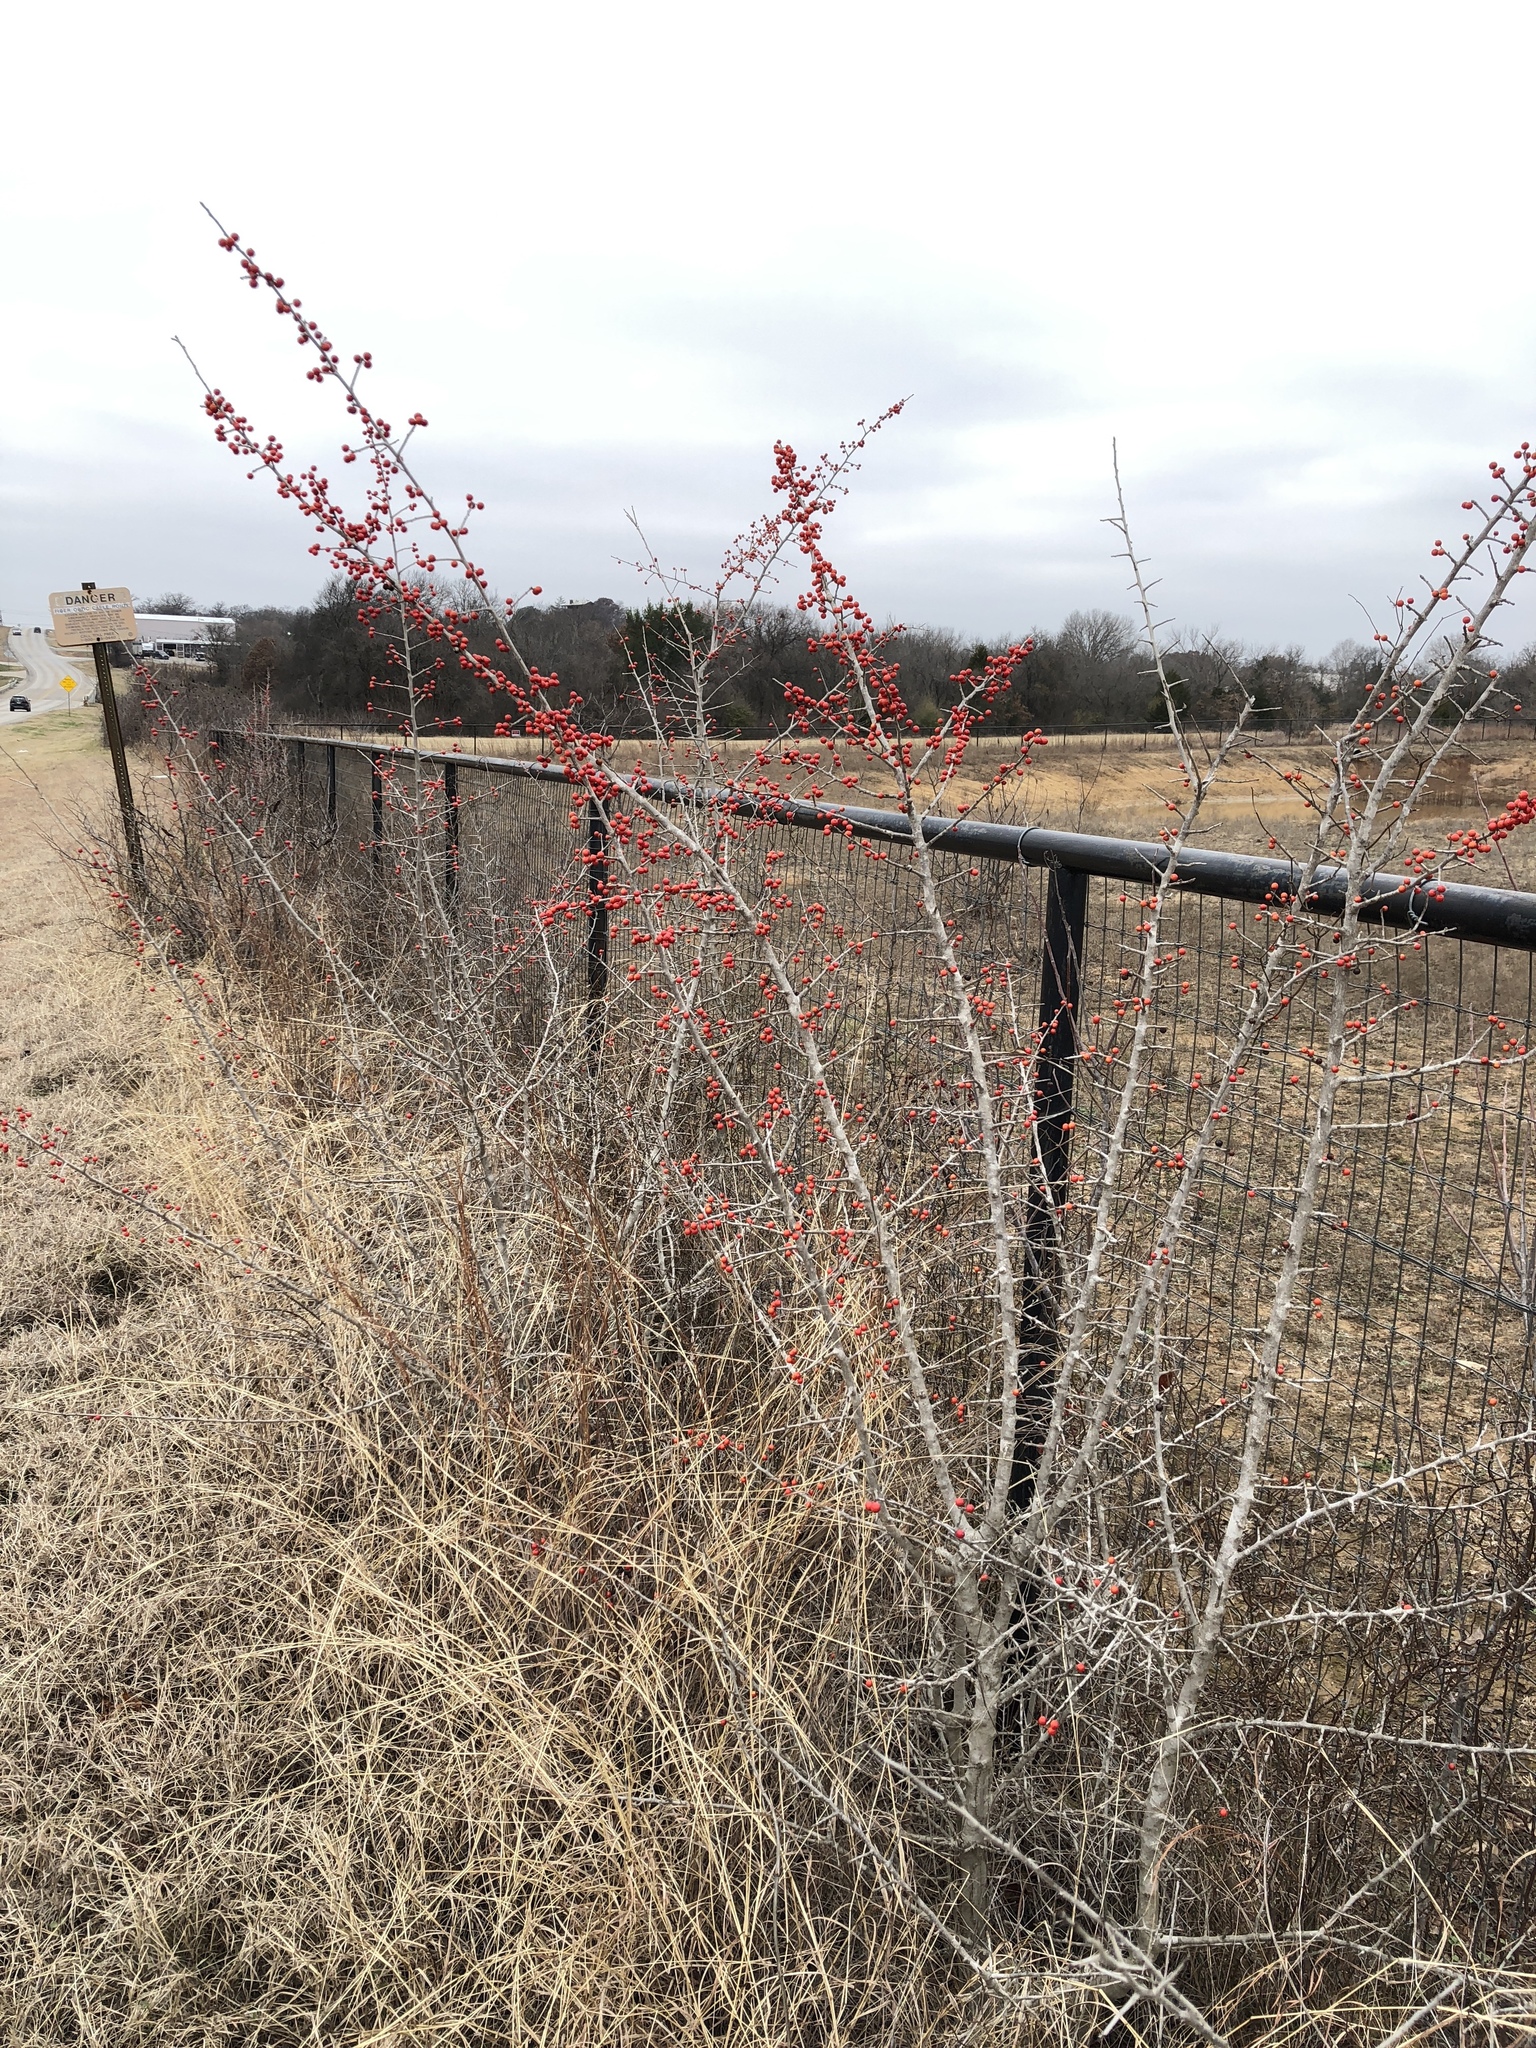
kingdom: Plantae
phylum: Tracheophyta
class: Magnoliopsida
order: Aquifoliales
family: Aquifoliaceae
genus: Ilex
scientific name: Ilex decidua
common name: Possum-haw
